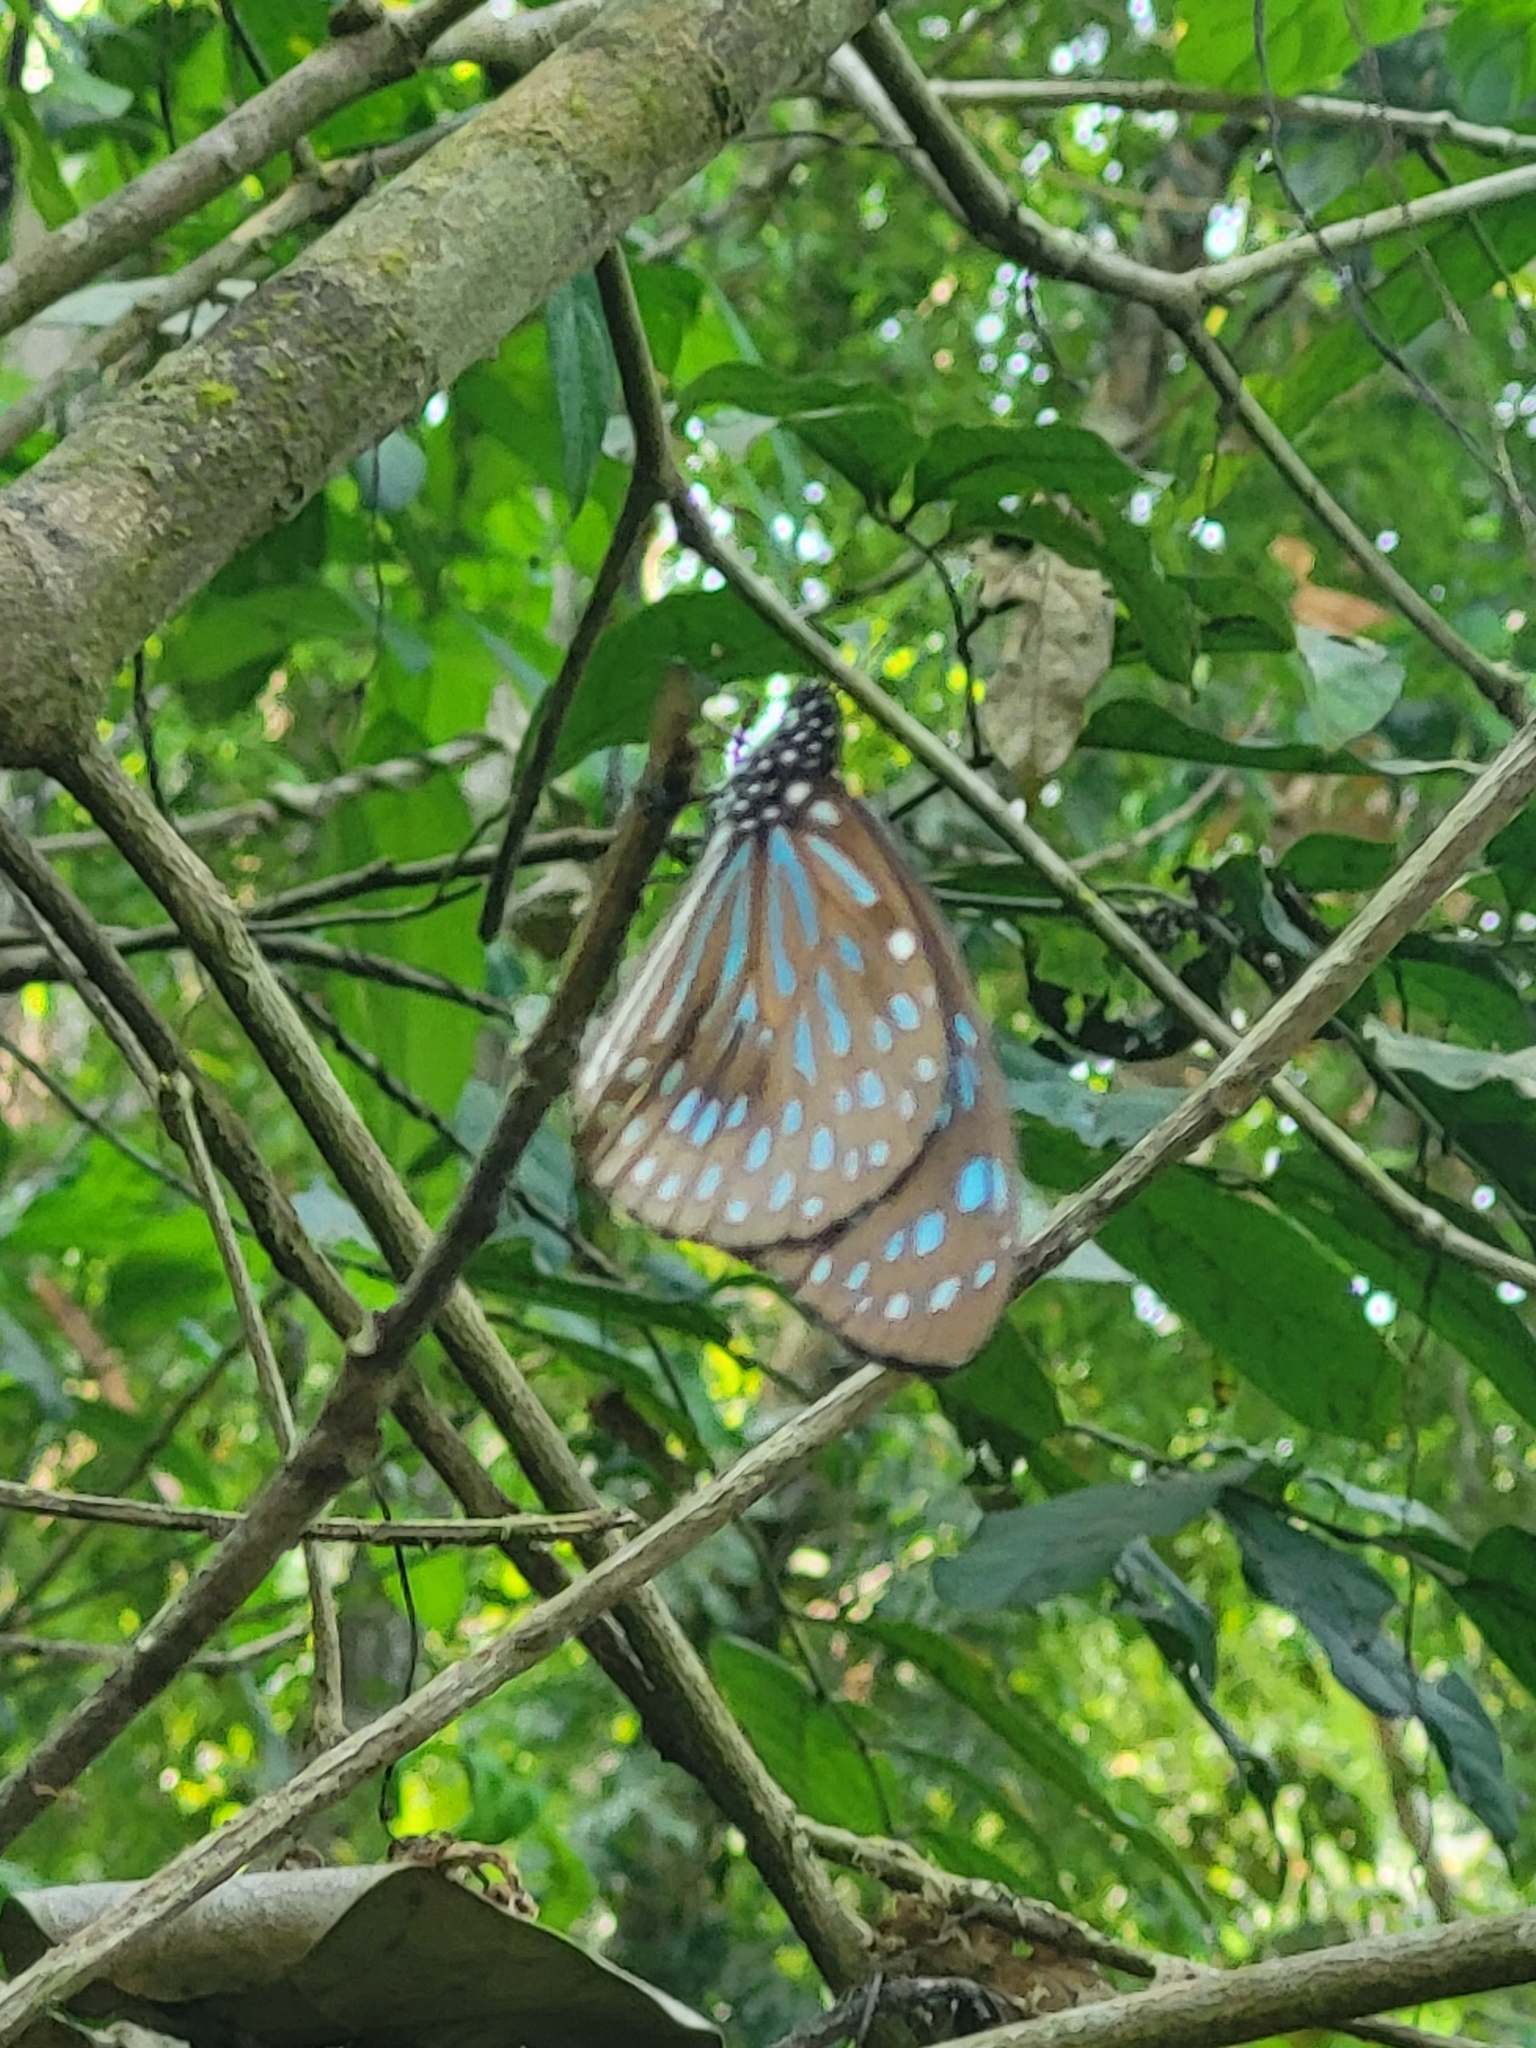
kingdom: Animalia
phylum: Arthropoda
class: Insecta
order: Lepidoptera
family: Nymphalidae
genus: Tirumala
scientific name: Tirumala septentrionis
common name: Dark blue tiger butterfly
